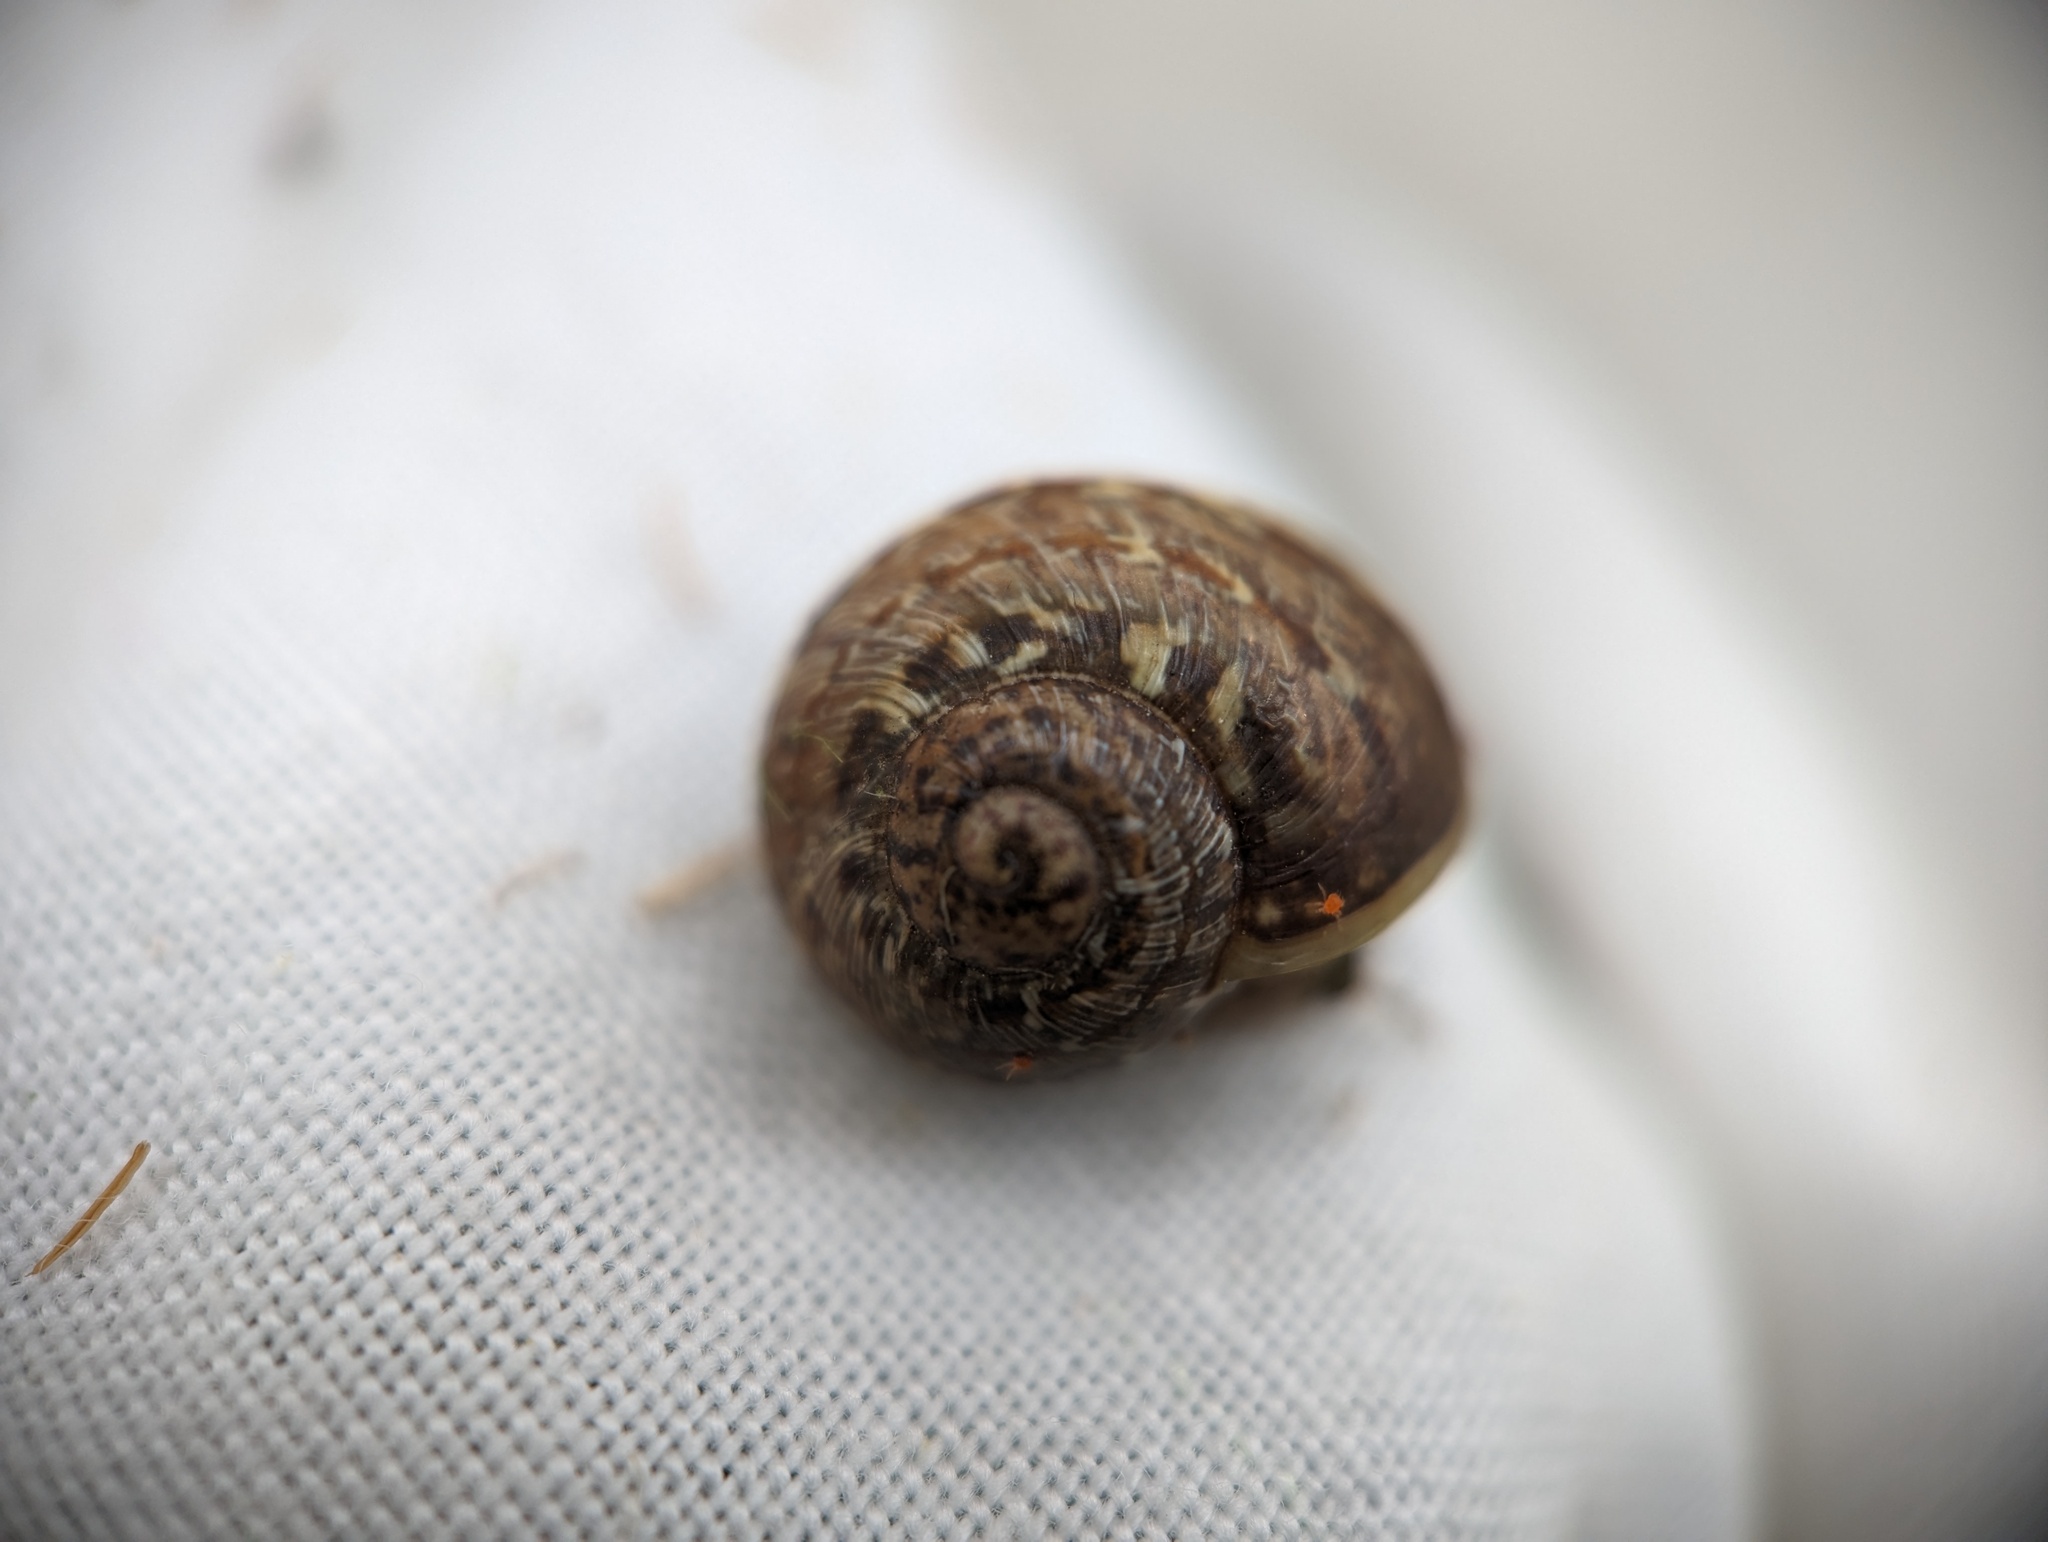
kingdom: Animalia
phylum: Mollusca
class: Gastropoda
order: Stylommatophora
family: Helicidae
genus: Cornu
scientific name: Cornu aspersum
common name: Brown garden snail
